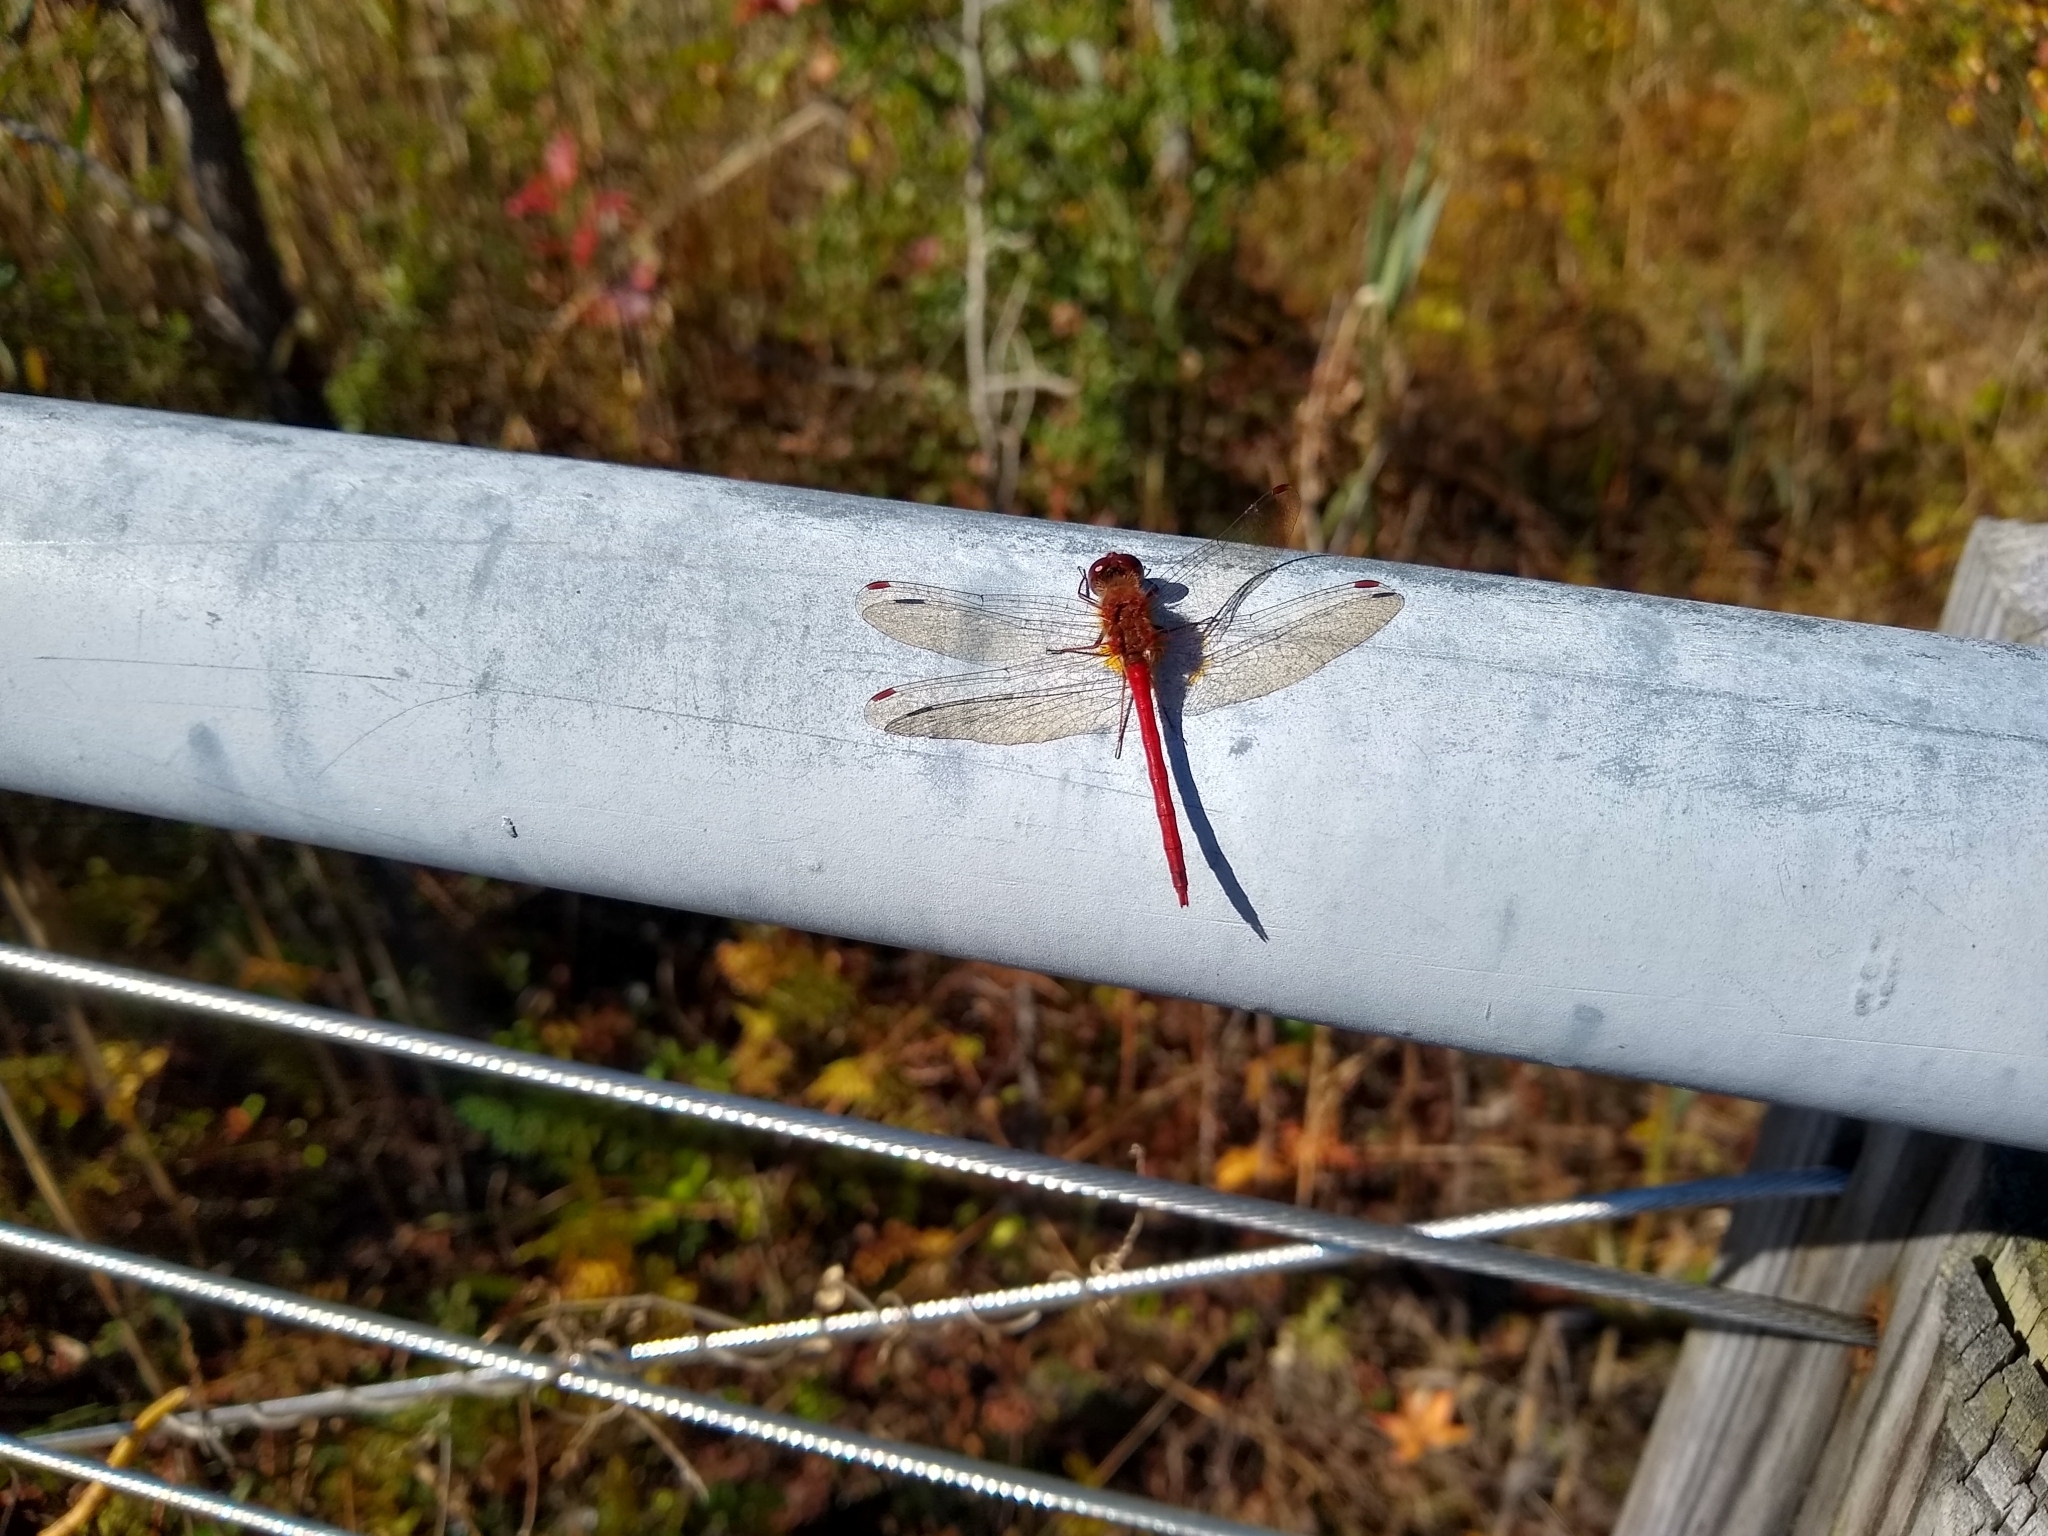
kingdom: Animalia
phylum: Arthropoda
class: Insecta
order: Odonata
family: Libellulidae
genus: Sympetrum
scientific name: Sympetrum vicinum
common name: Autumn meadowhawk
